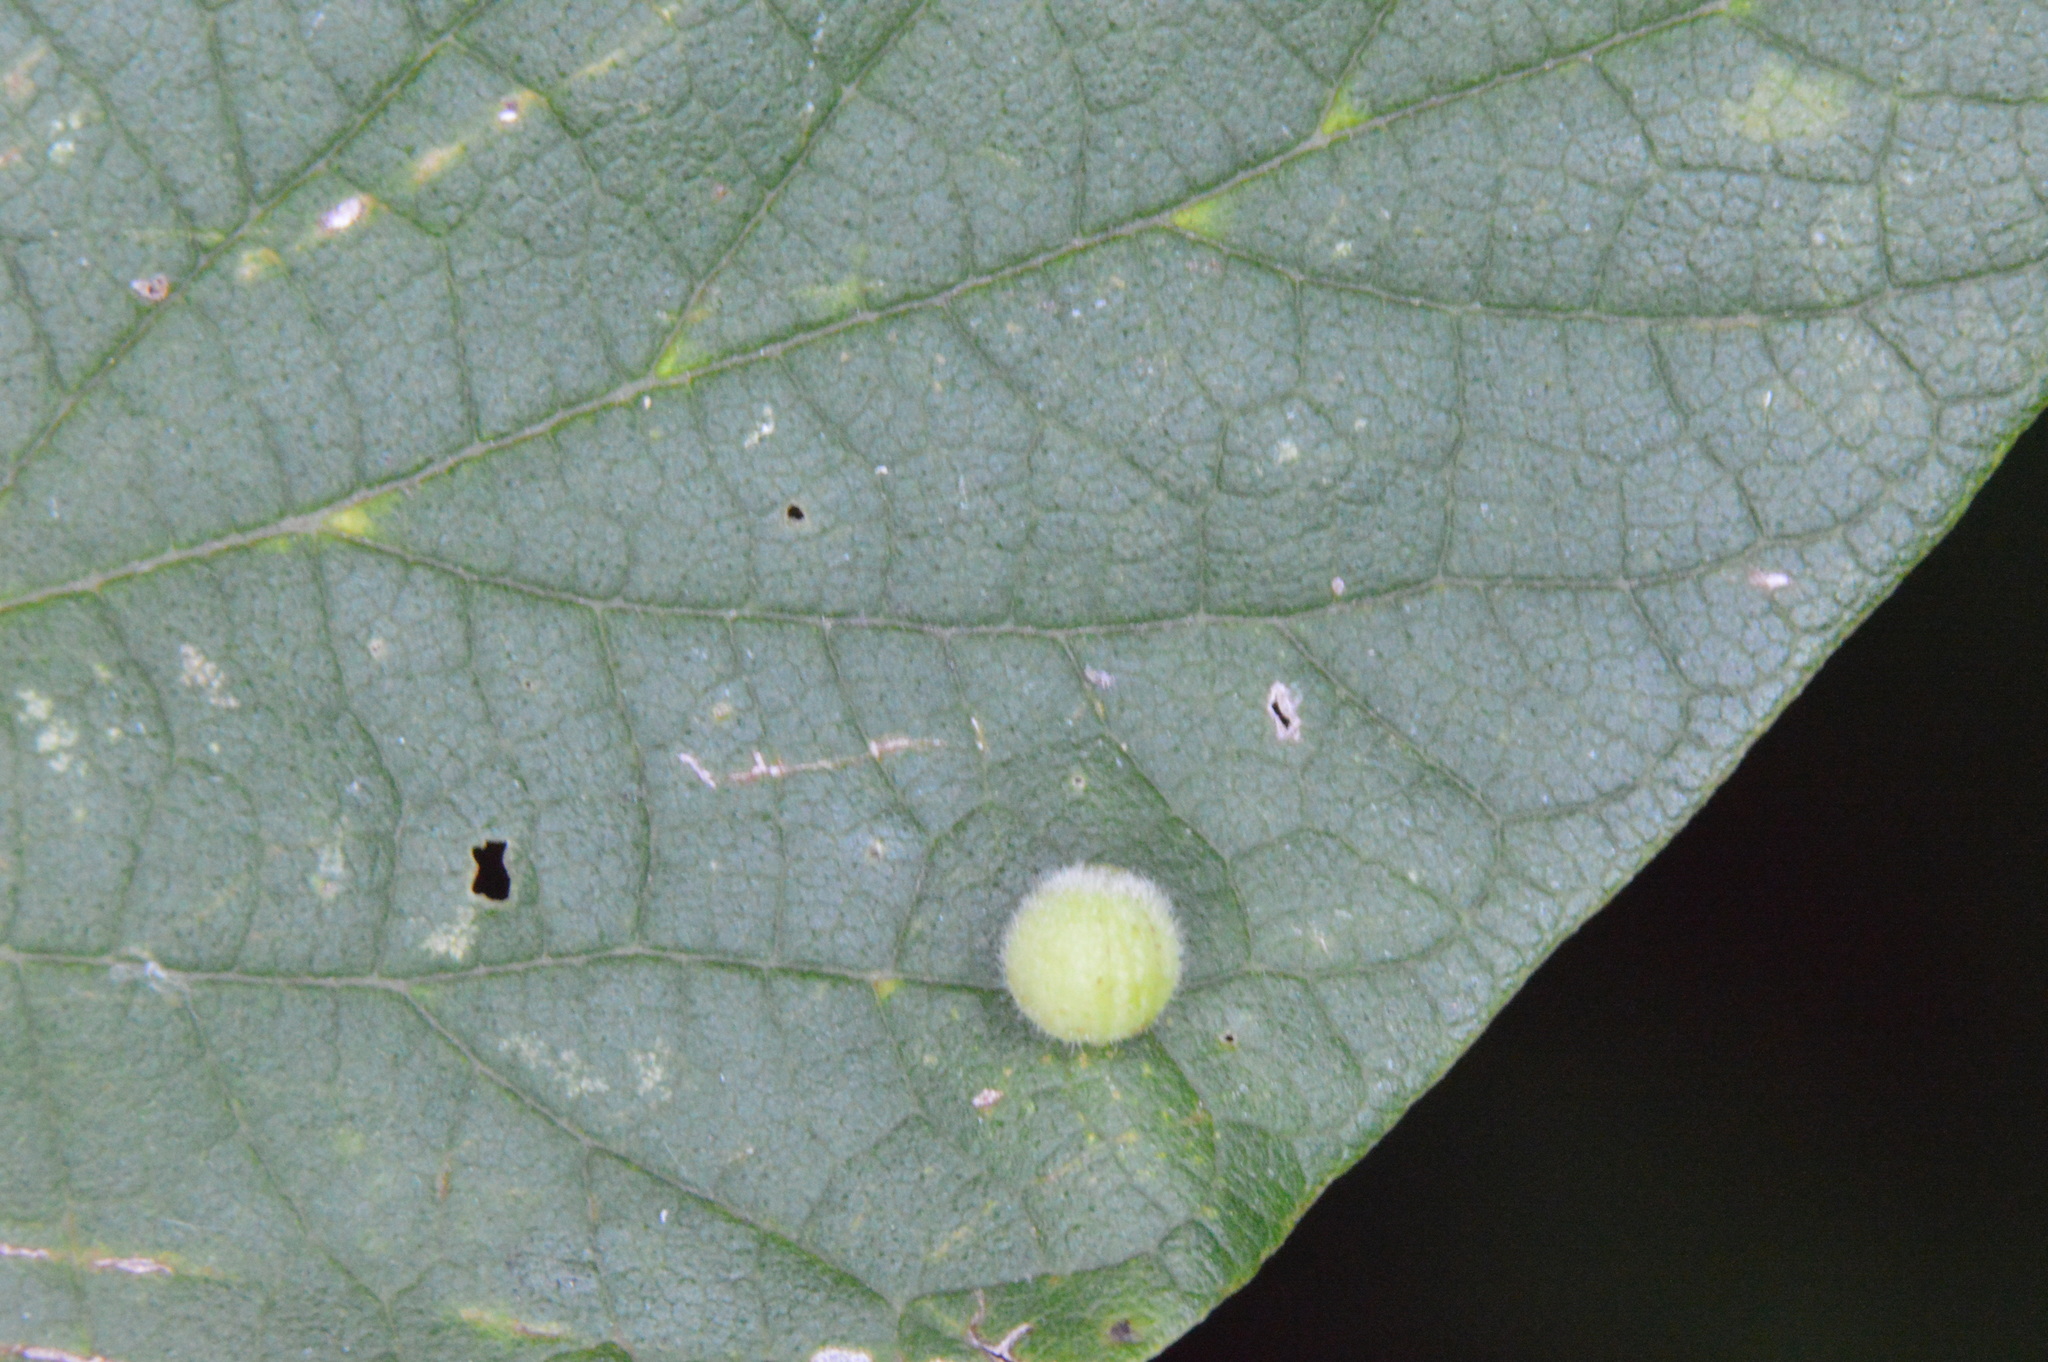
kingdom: Animalia
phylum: Arthropoda
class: Insecta
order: Diptera
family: Cecidomyiidae
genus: Celticecis
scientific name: Celticecis globosa
